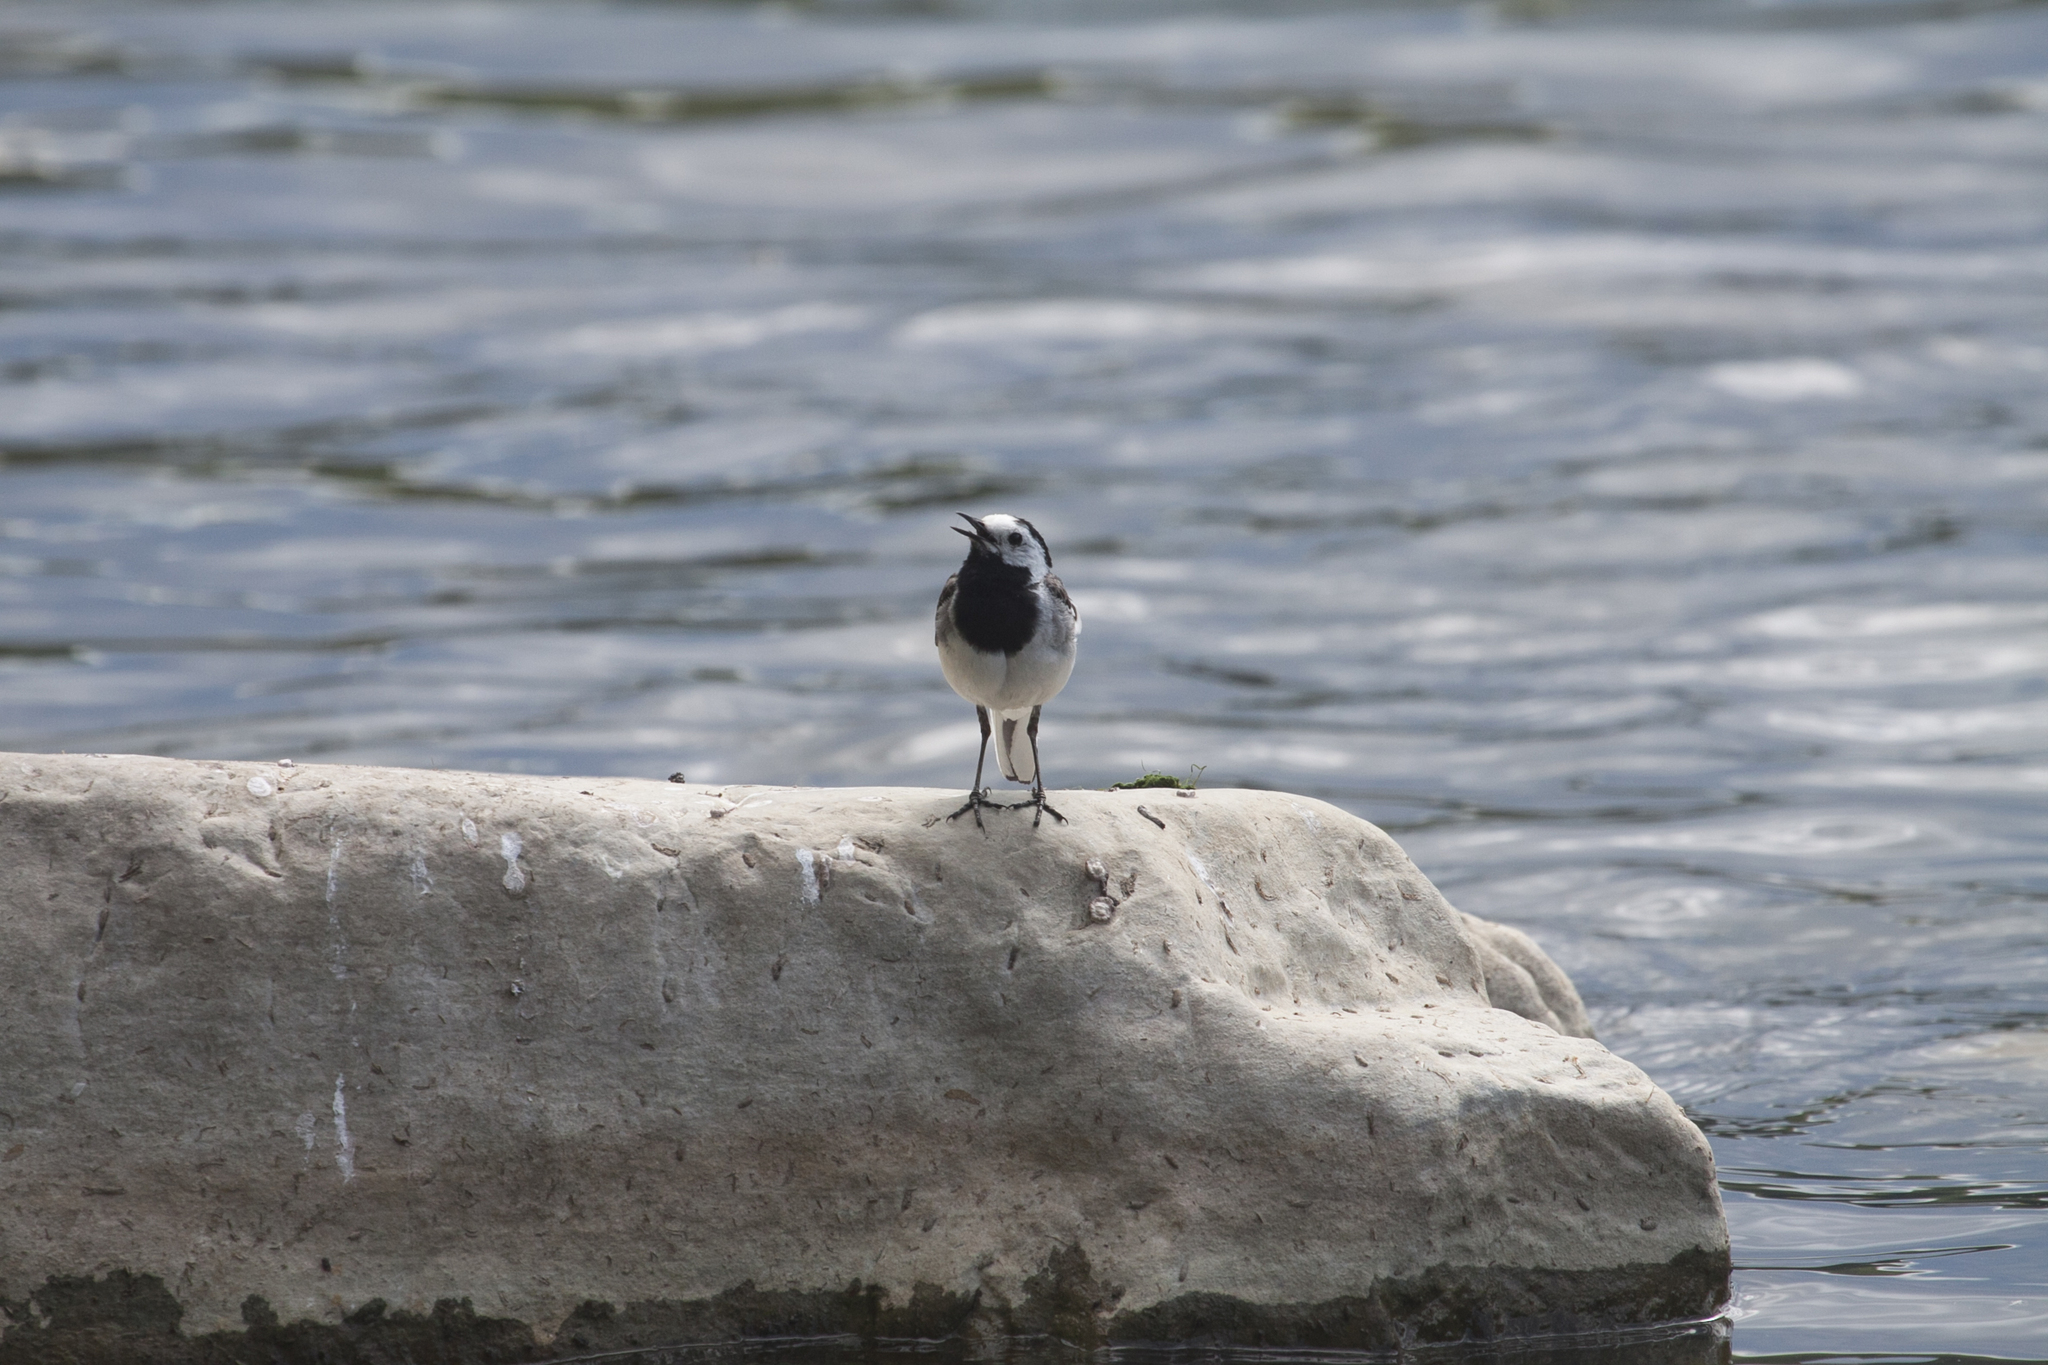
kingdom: Animalia
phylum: Chordata
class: Aves
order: Passeriformes
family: Motacillidae
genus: Motacilla
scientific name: Motacilla alba
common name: White wagtail
